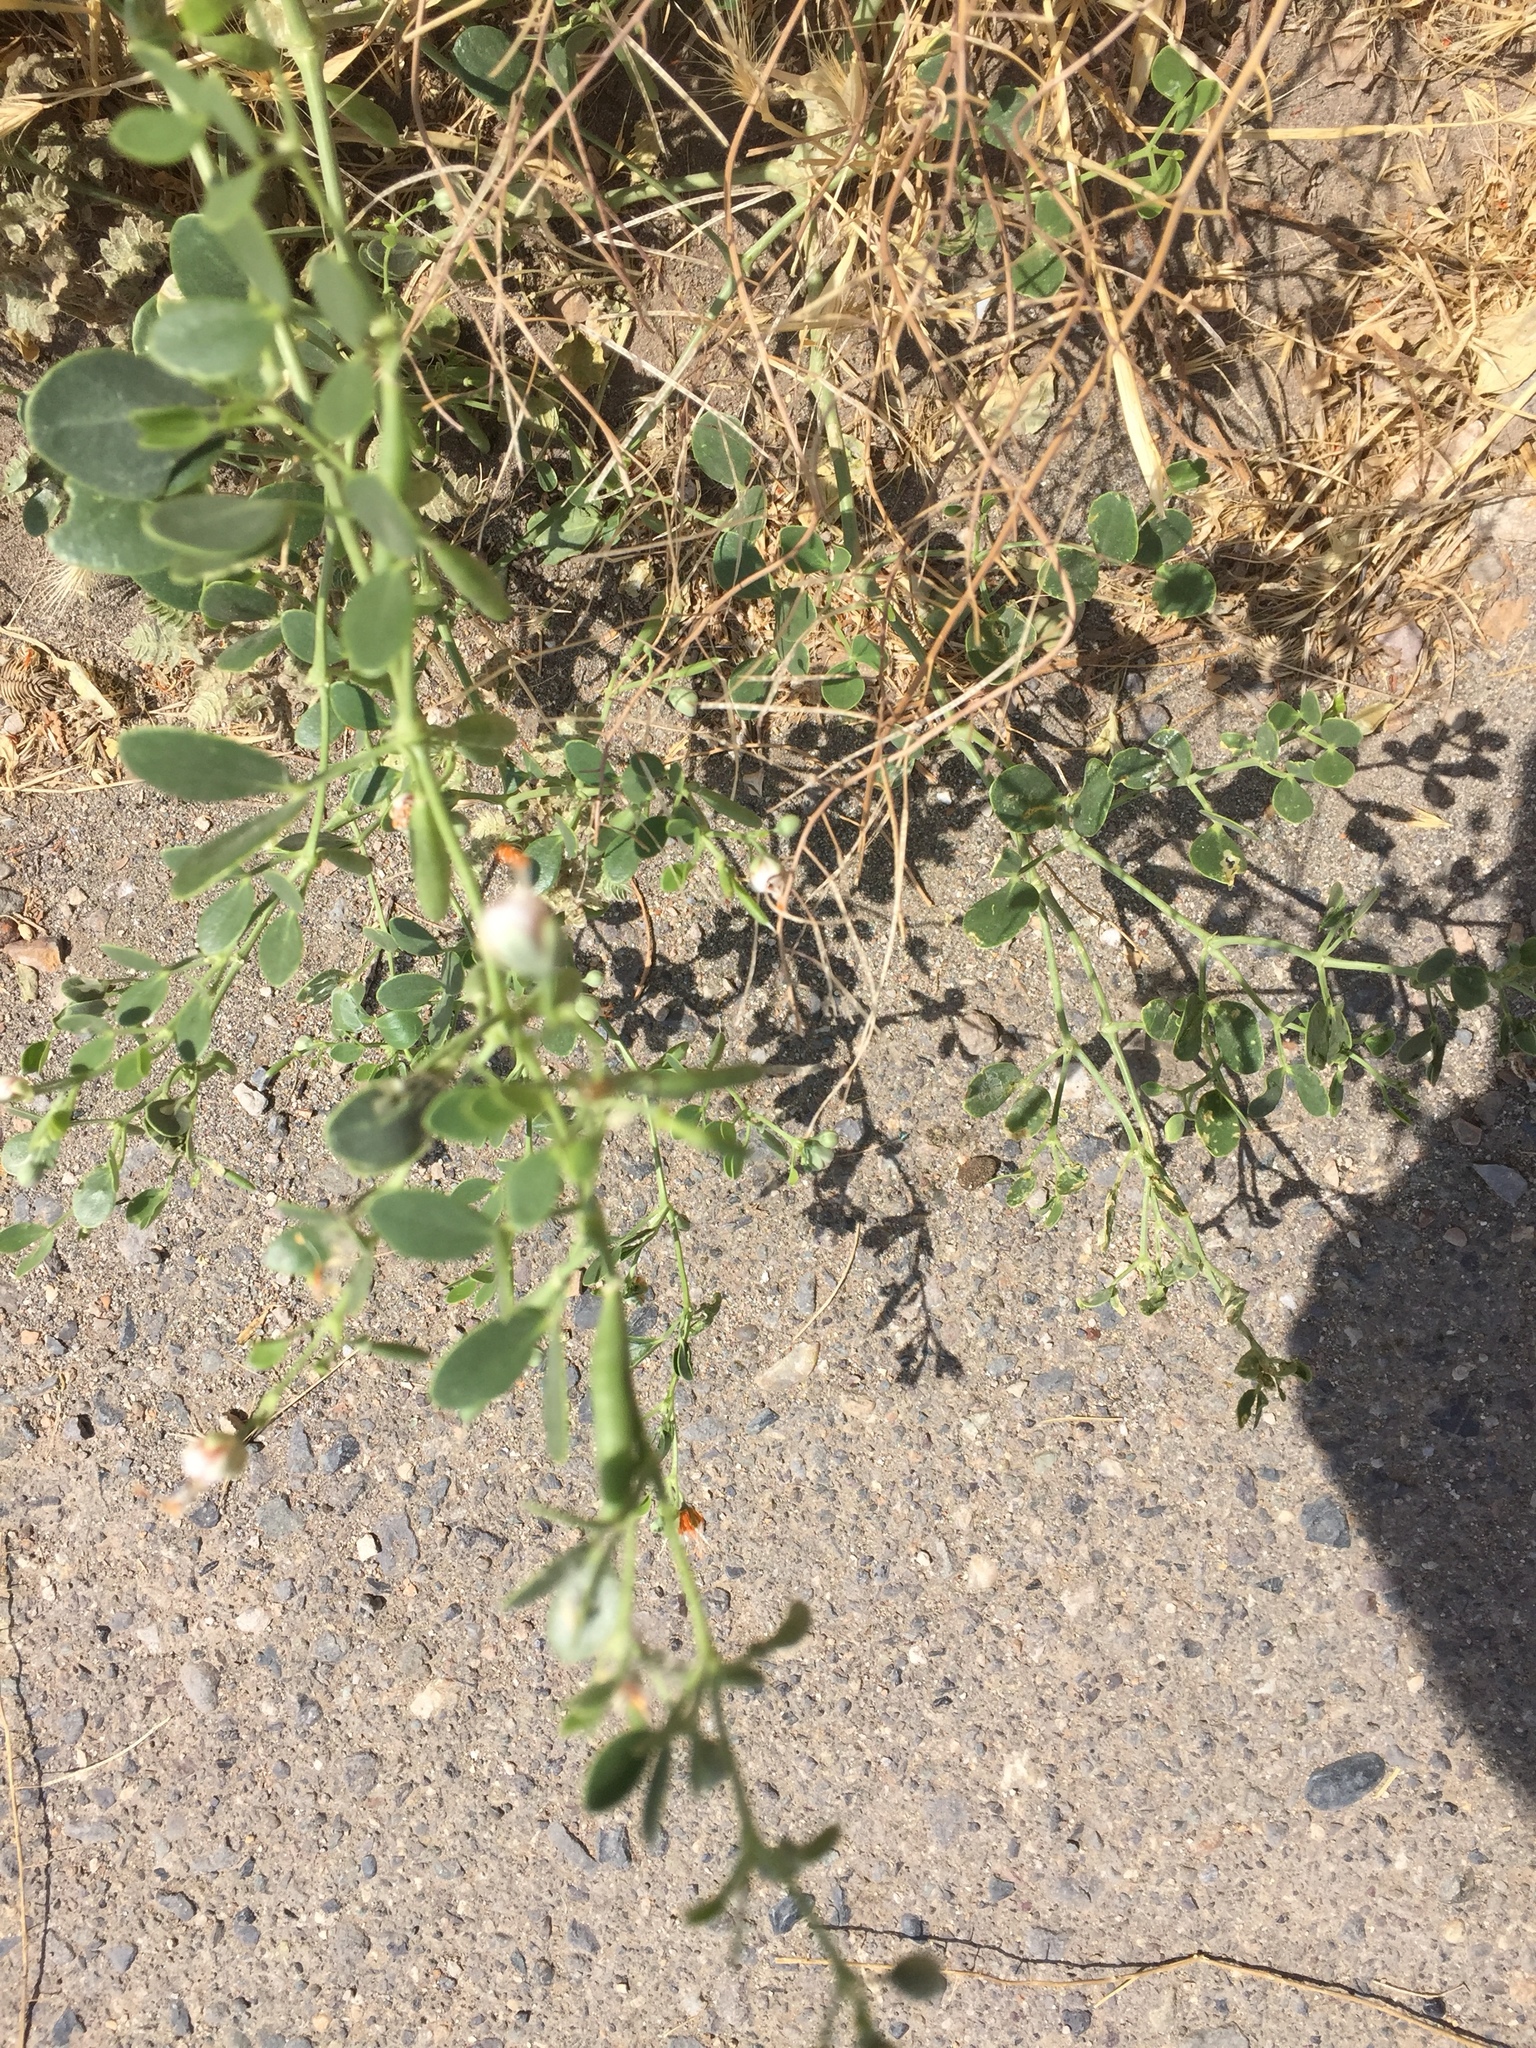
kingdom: Plantae
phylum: Tracheophyta
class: Magnoliopsida
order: Zygophyllales
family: Zygophyllaceae
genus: Zygophyllum
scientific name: Zygophyllum fabago
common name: Syrian beancaper
